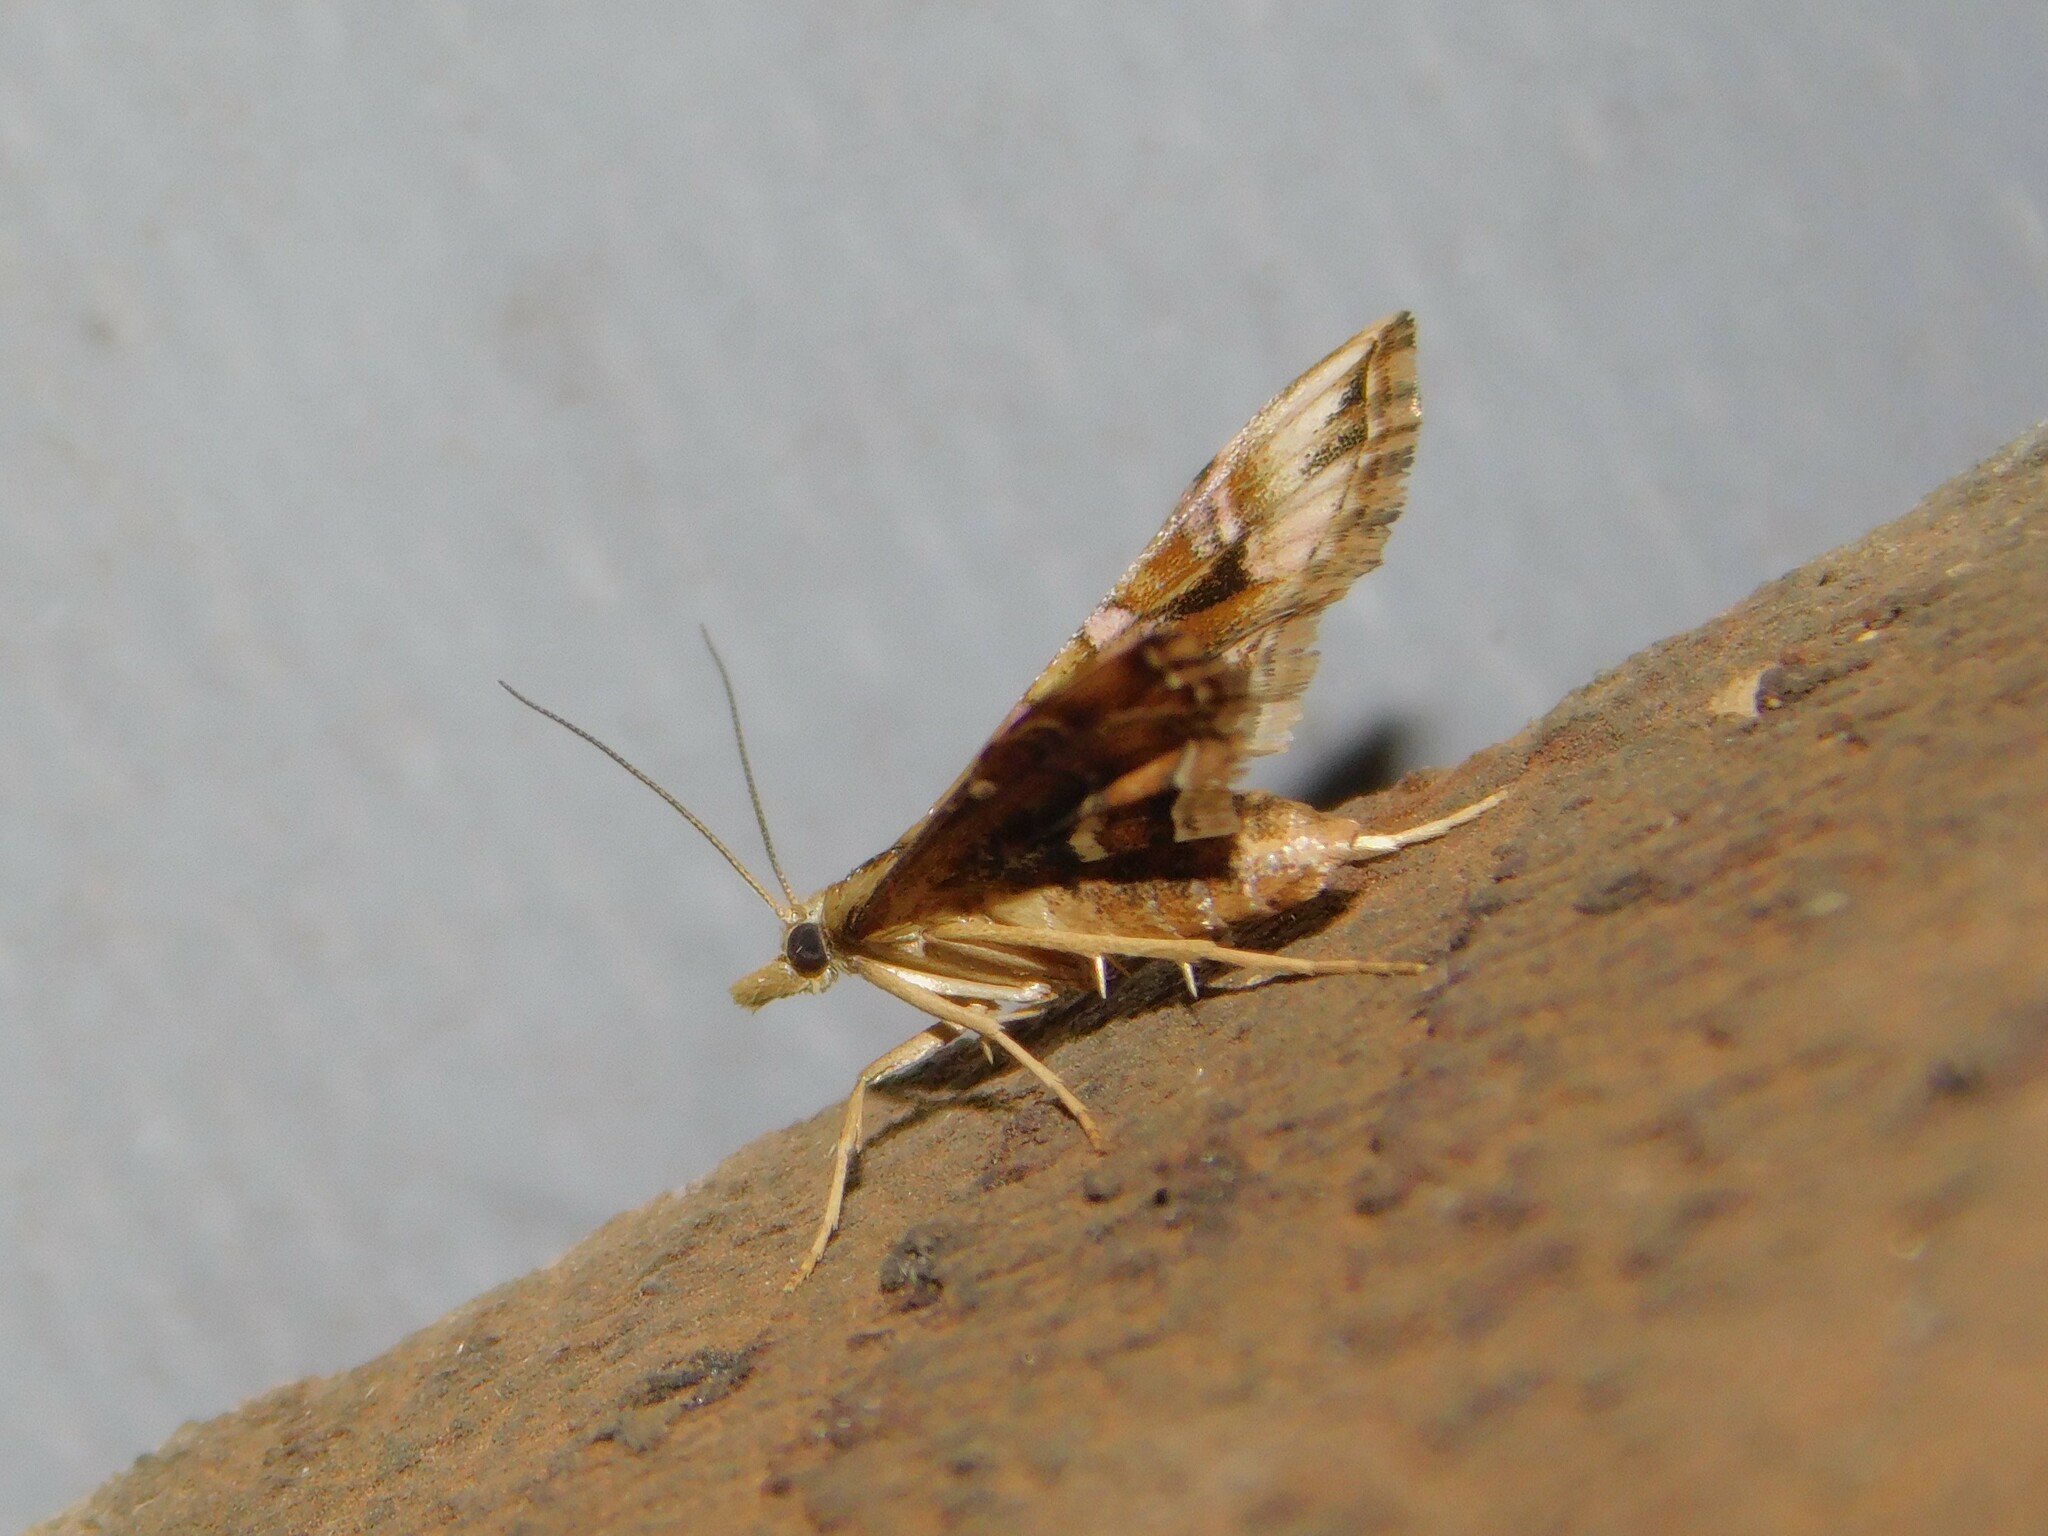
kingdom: Animalia
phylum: Arthropoda
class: Insecta
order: Lepidoptera
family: Crambidae
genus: Diasemia
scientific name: Diasemia lunalis
